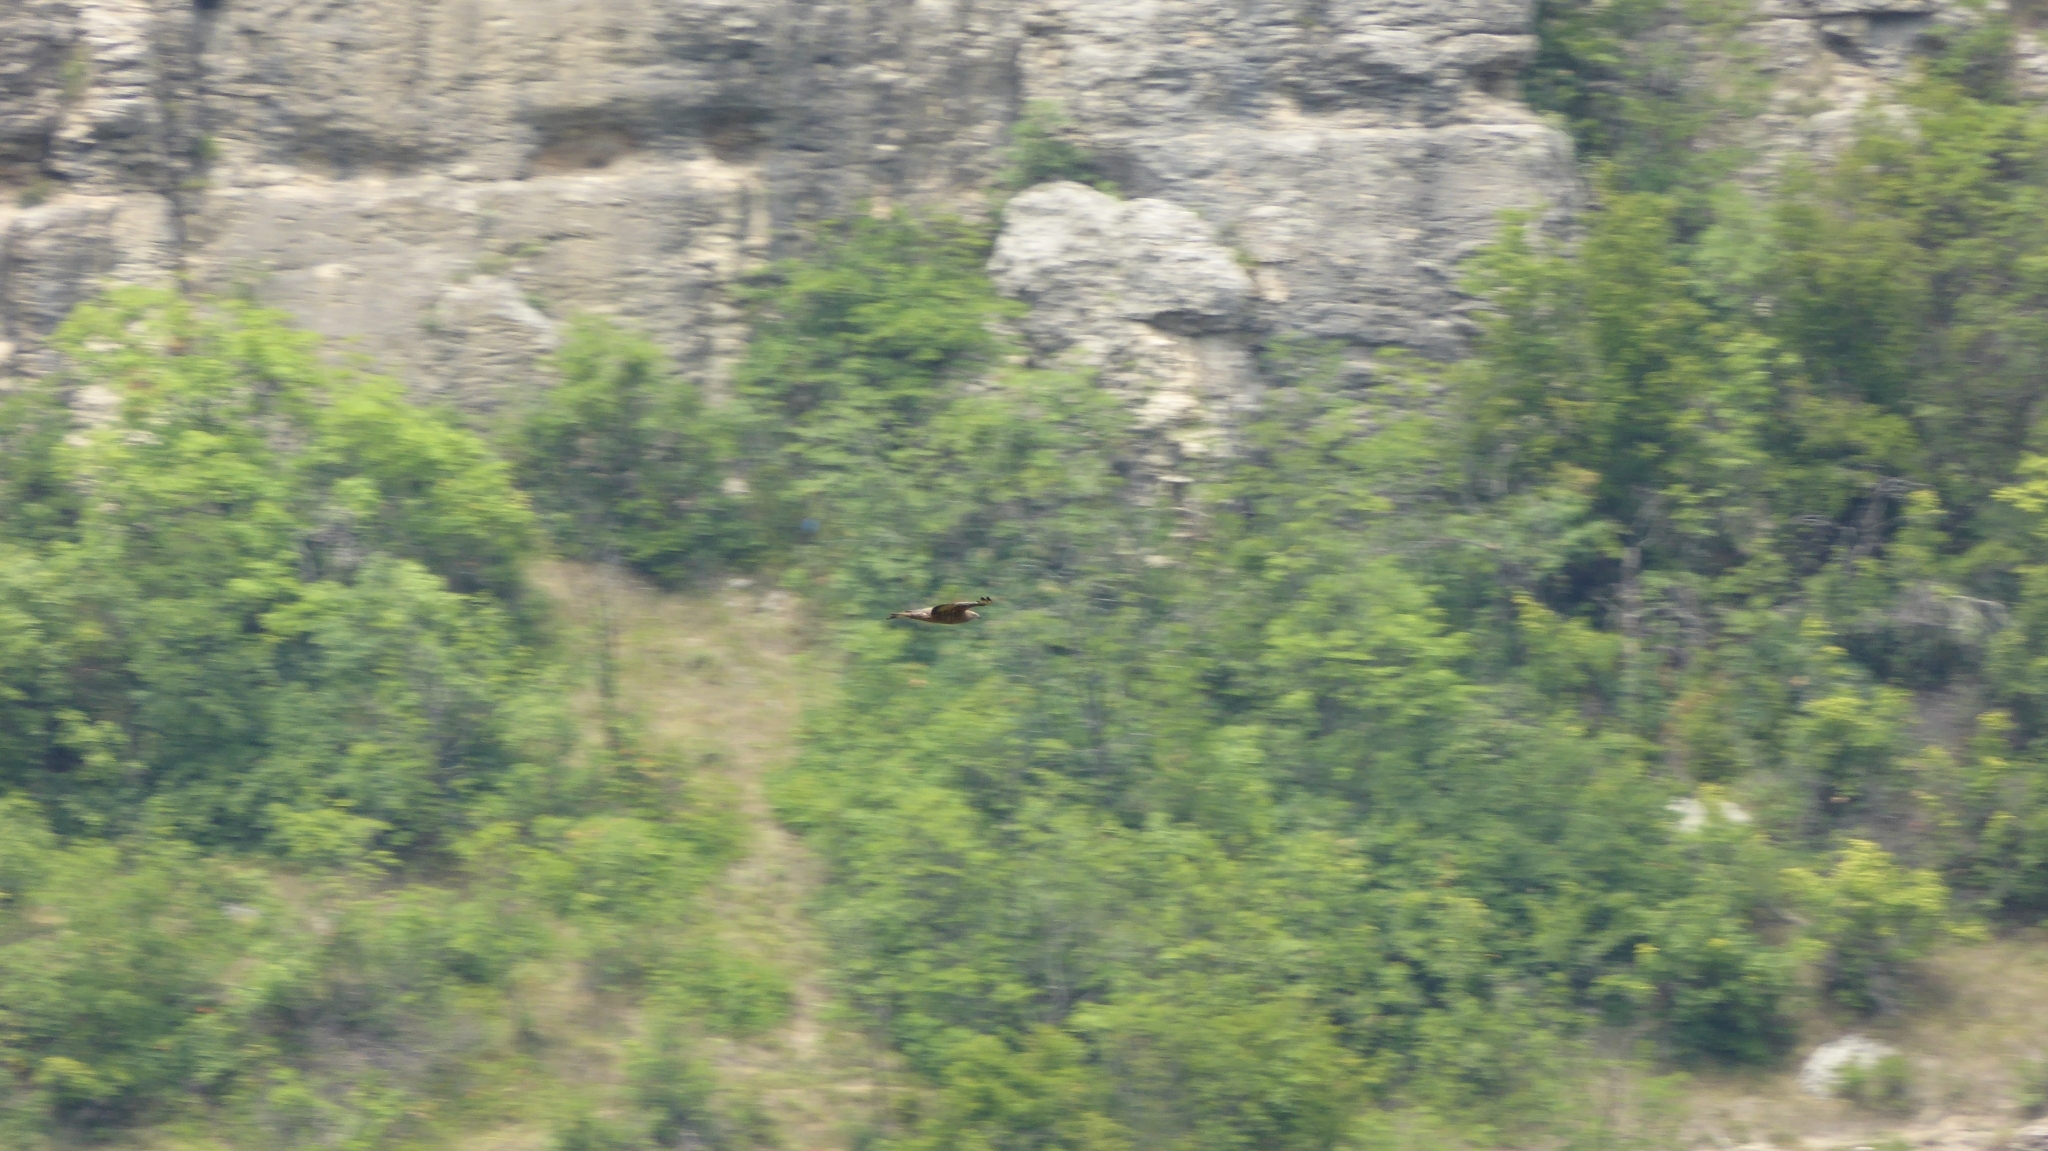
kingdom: Animalia
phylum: Chordata
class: Aves
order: Accipitriformes
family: Accipitridae
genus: Pernis
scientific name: Pernis apivorus
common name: European honey buzzard
